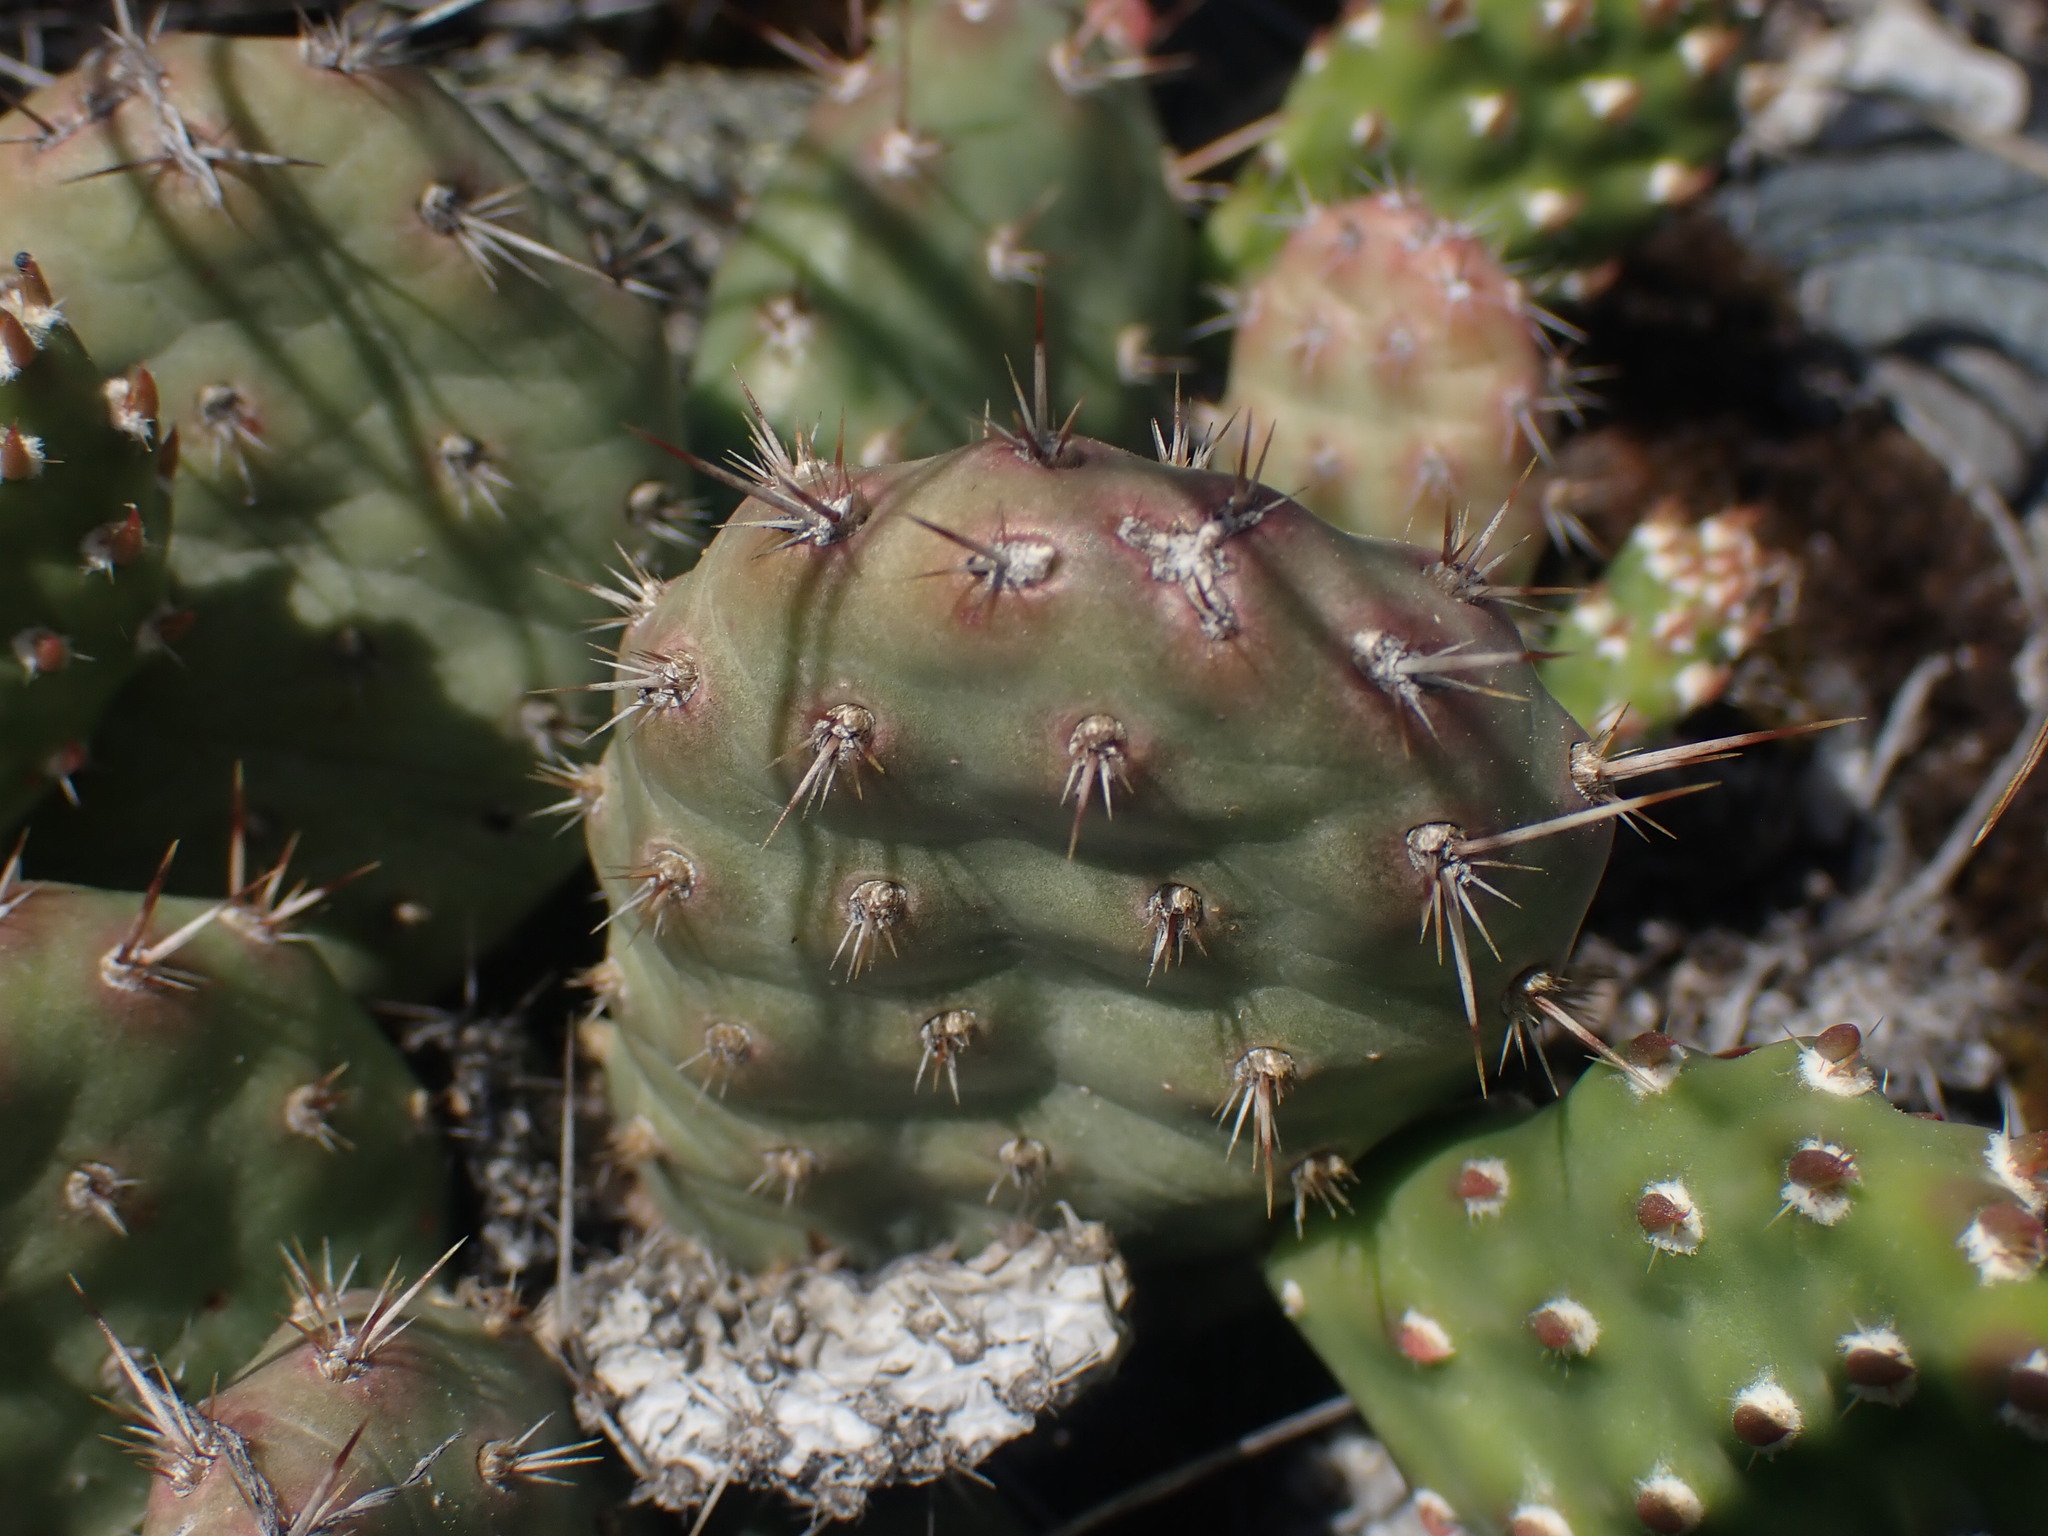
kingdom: Plantae
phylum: Tracheophyta
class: Magnoliopsida
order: Caryophyllales
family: Cactaceae
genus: Opuntia
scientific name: Opuntia fragilis
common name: Brittle cactus
